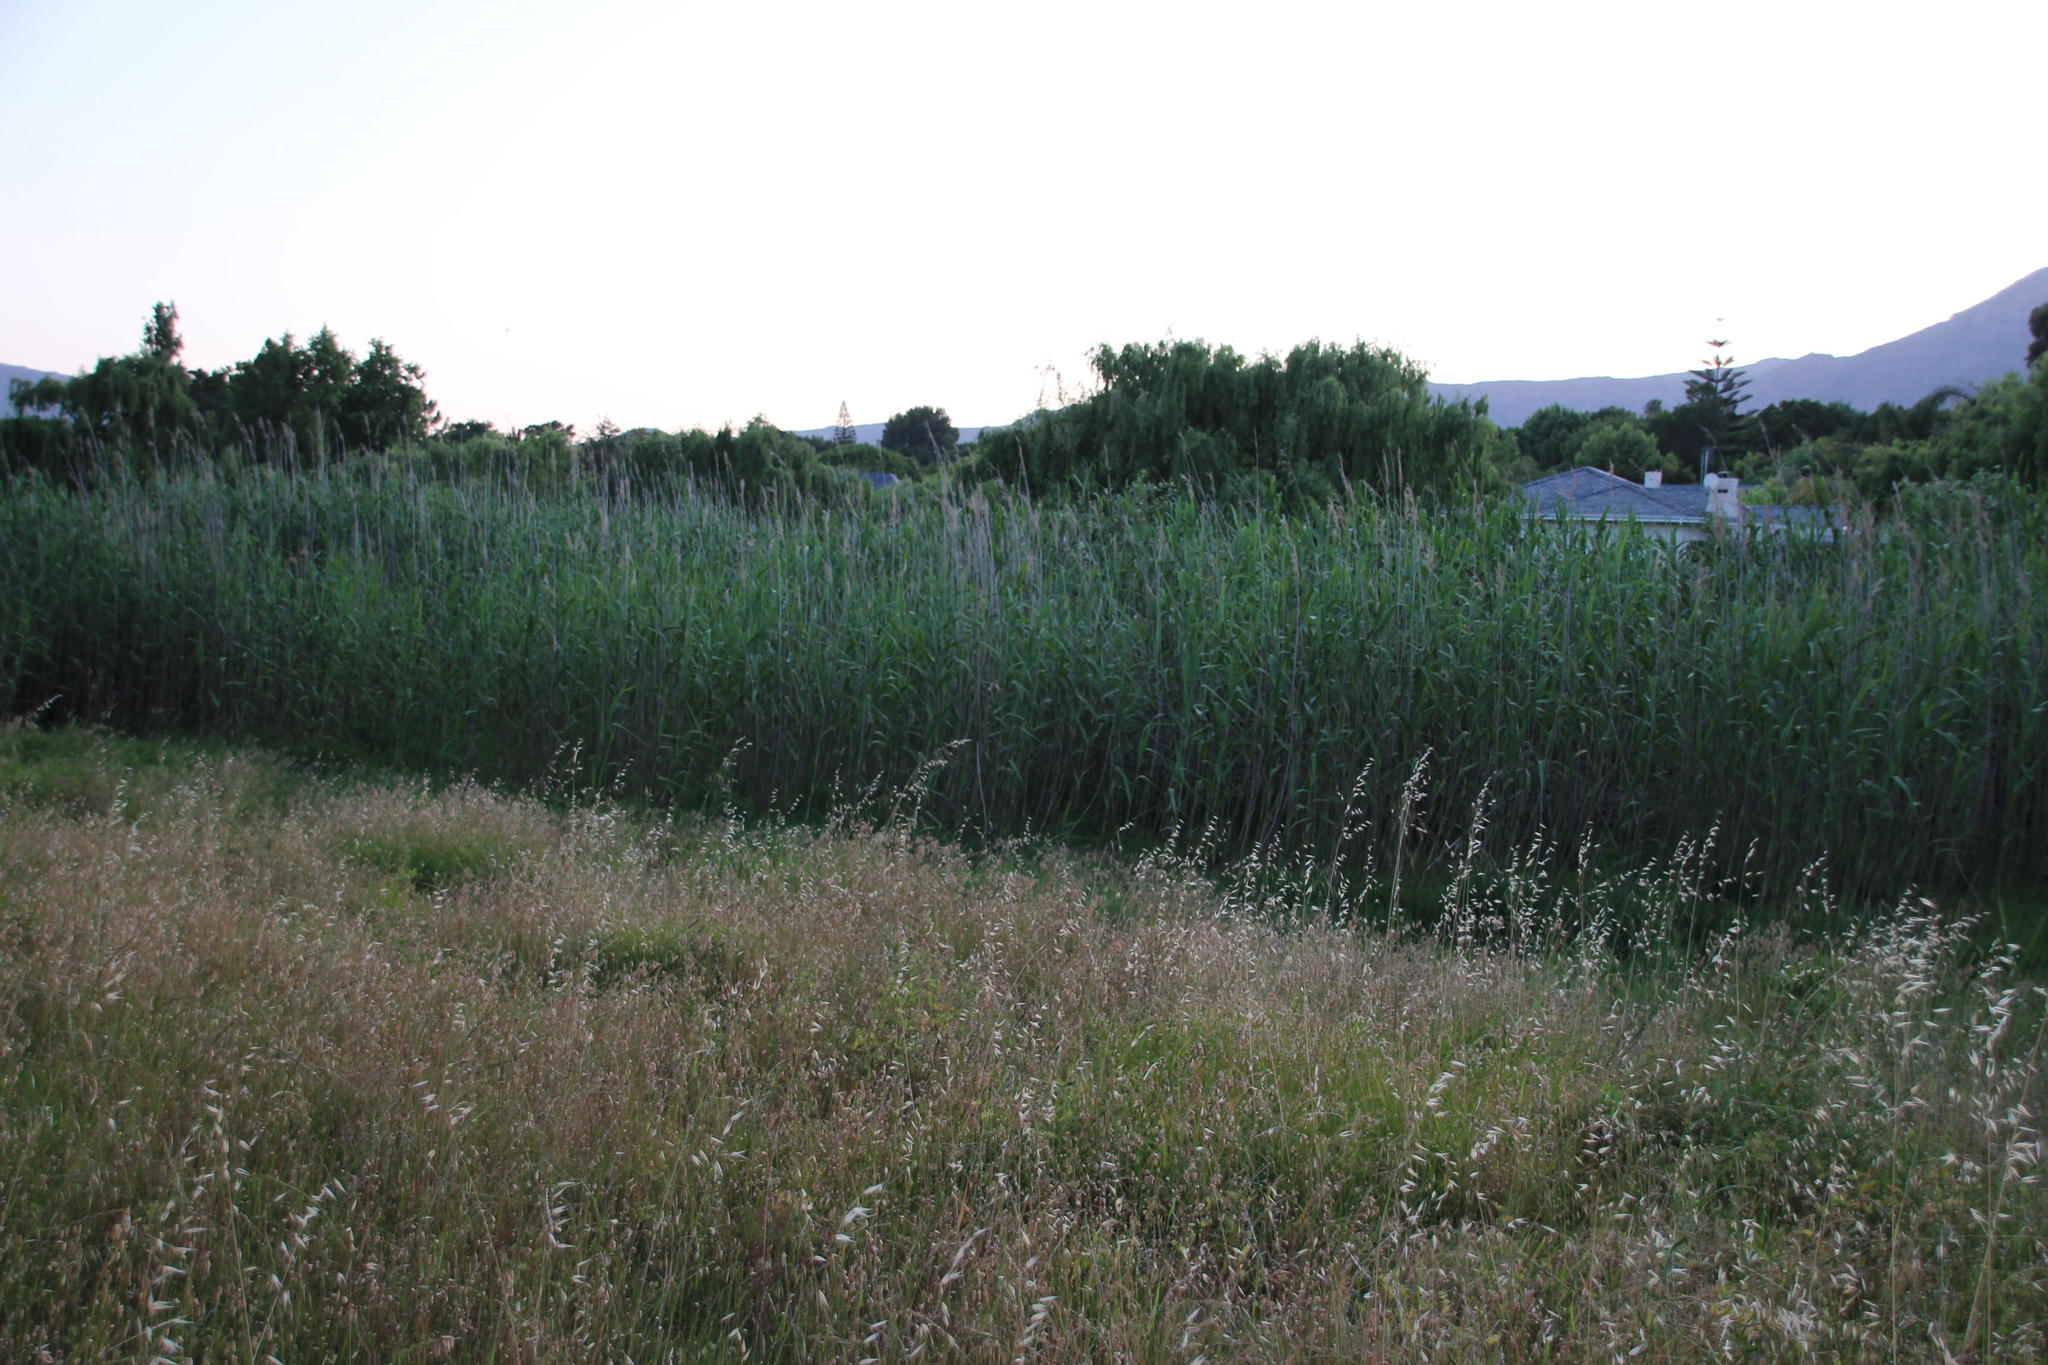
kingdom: Plantae
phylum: Tracheophyta
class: Liliopsida
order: Poales
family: Poaceae
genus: Phragmites
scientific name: Phragmites australis
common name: Common reed
